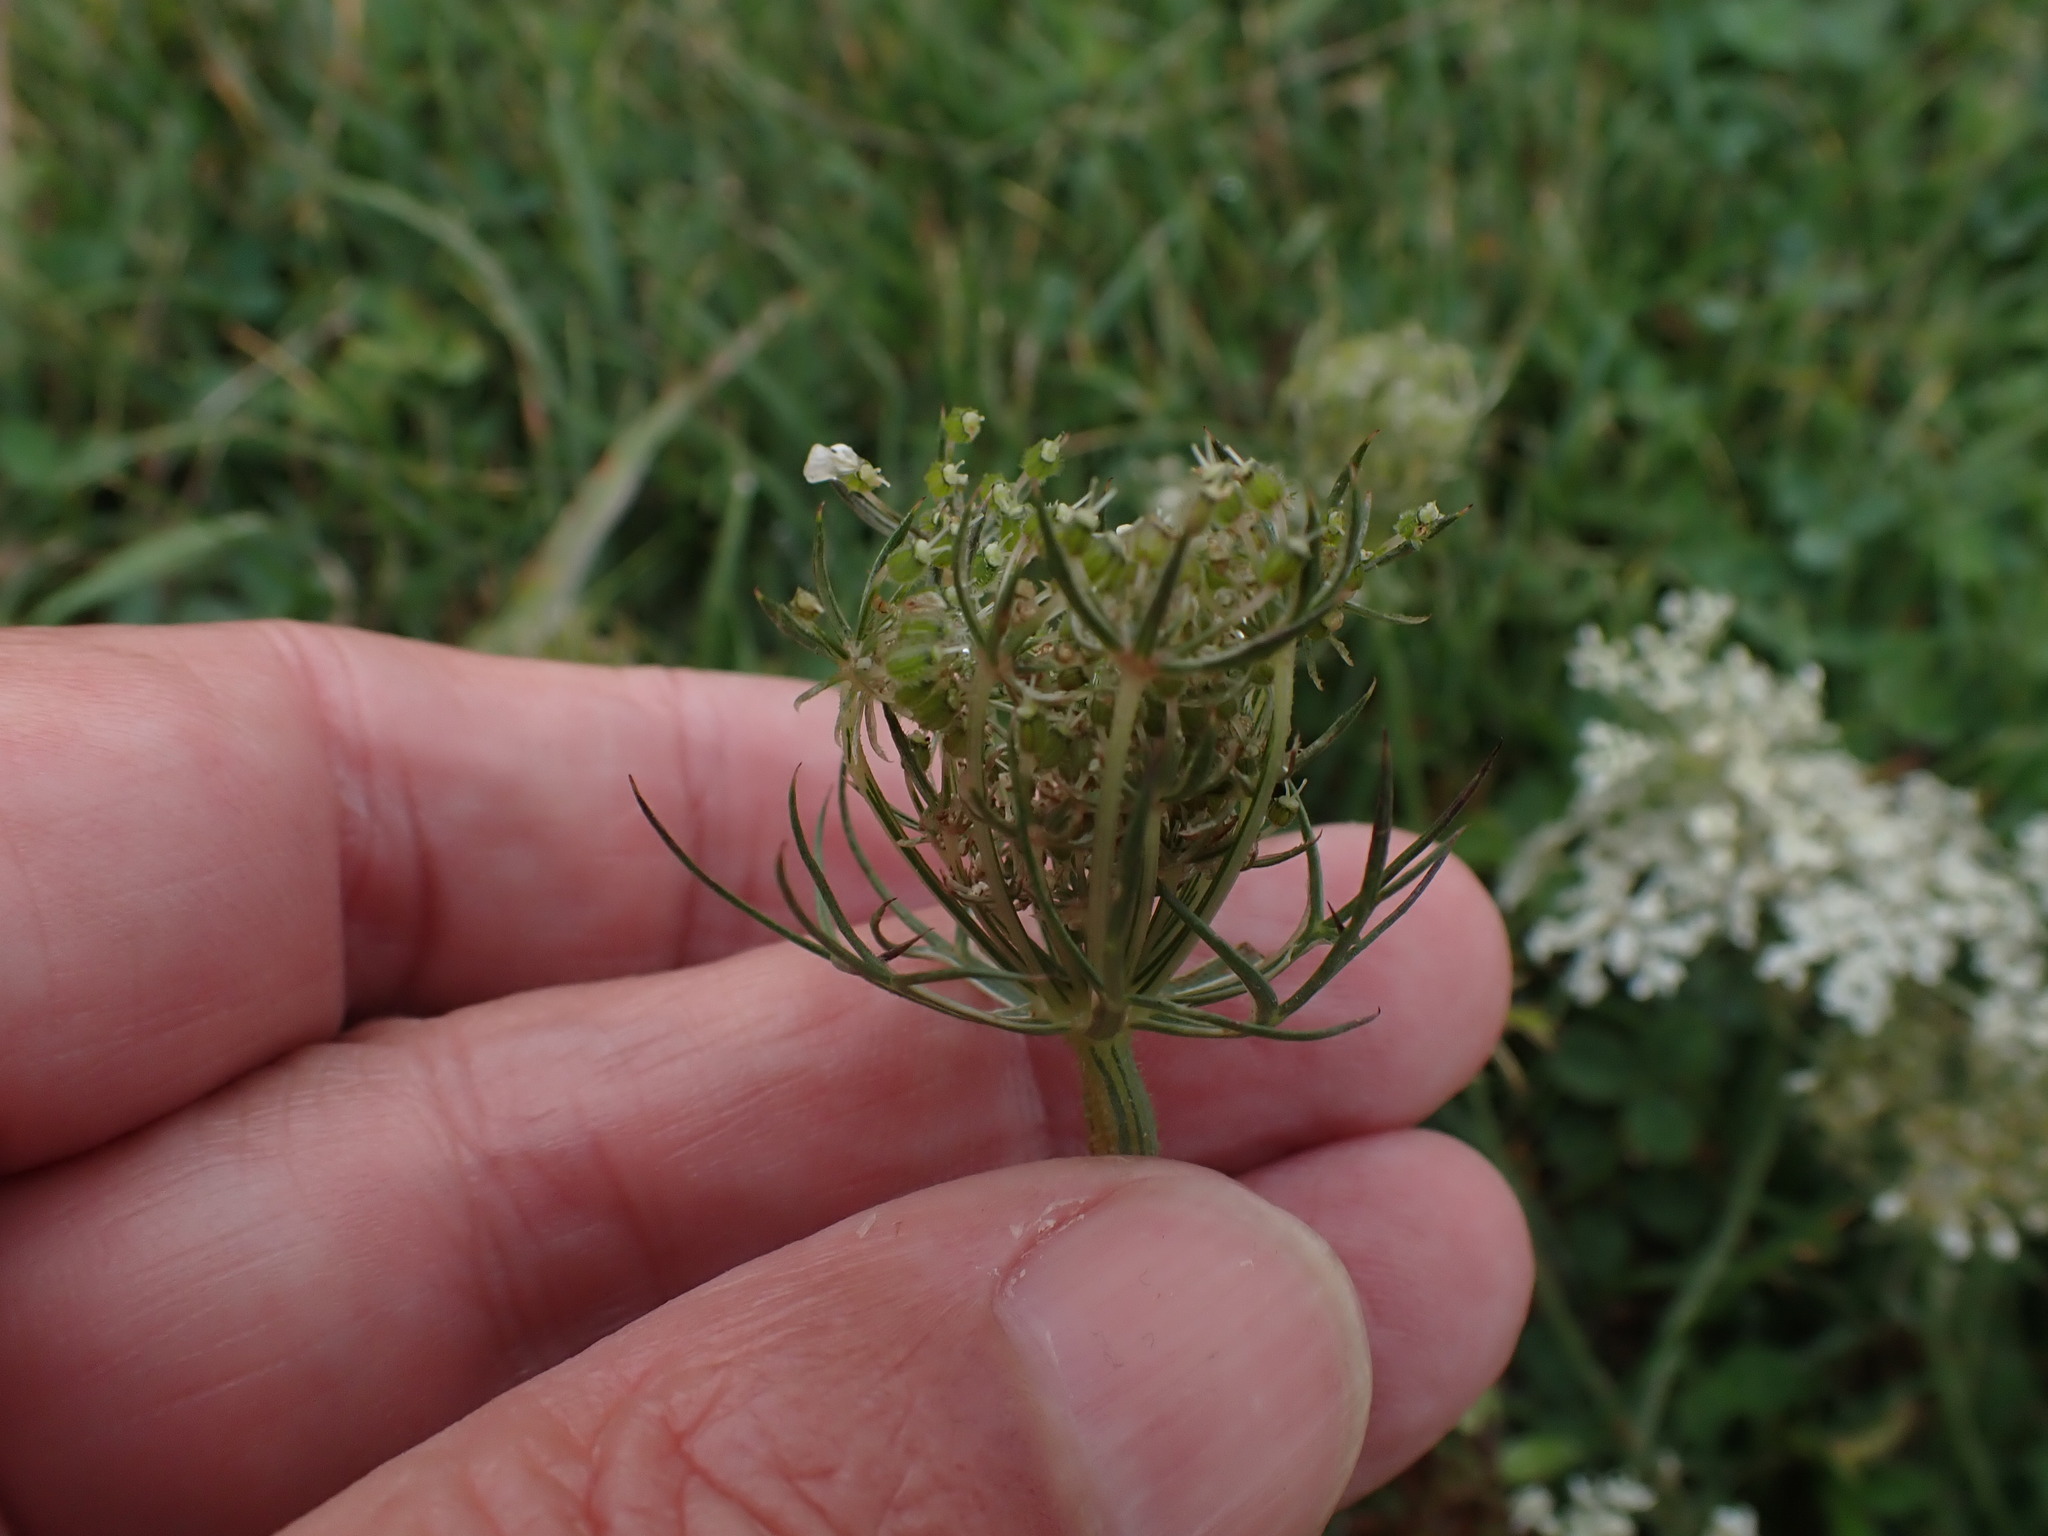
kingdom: Plantae
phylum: Tracheophyta
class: Magnoliopsida
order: Apiales
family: Apiaceae
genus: Daucus
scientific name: Daucus carota
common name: Wild carrot
